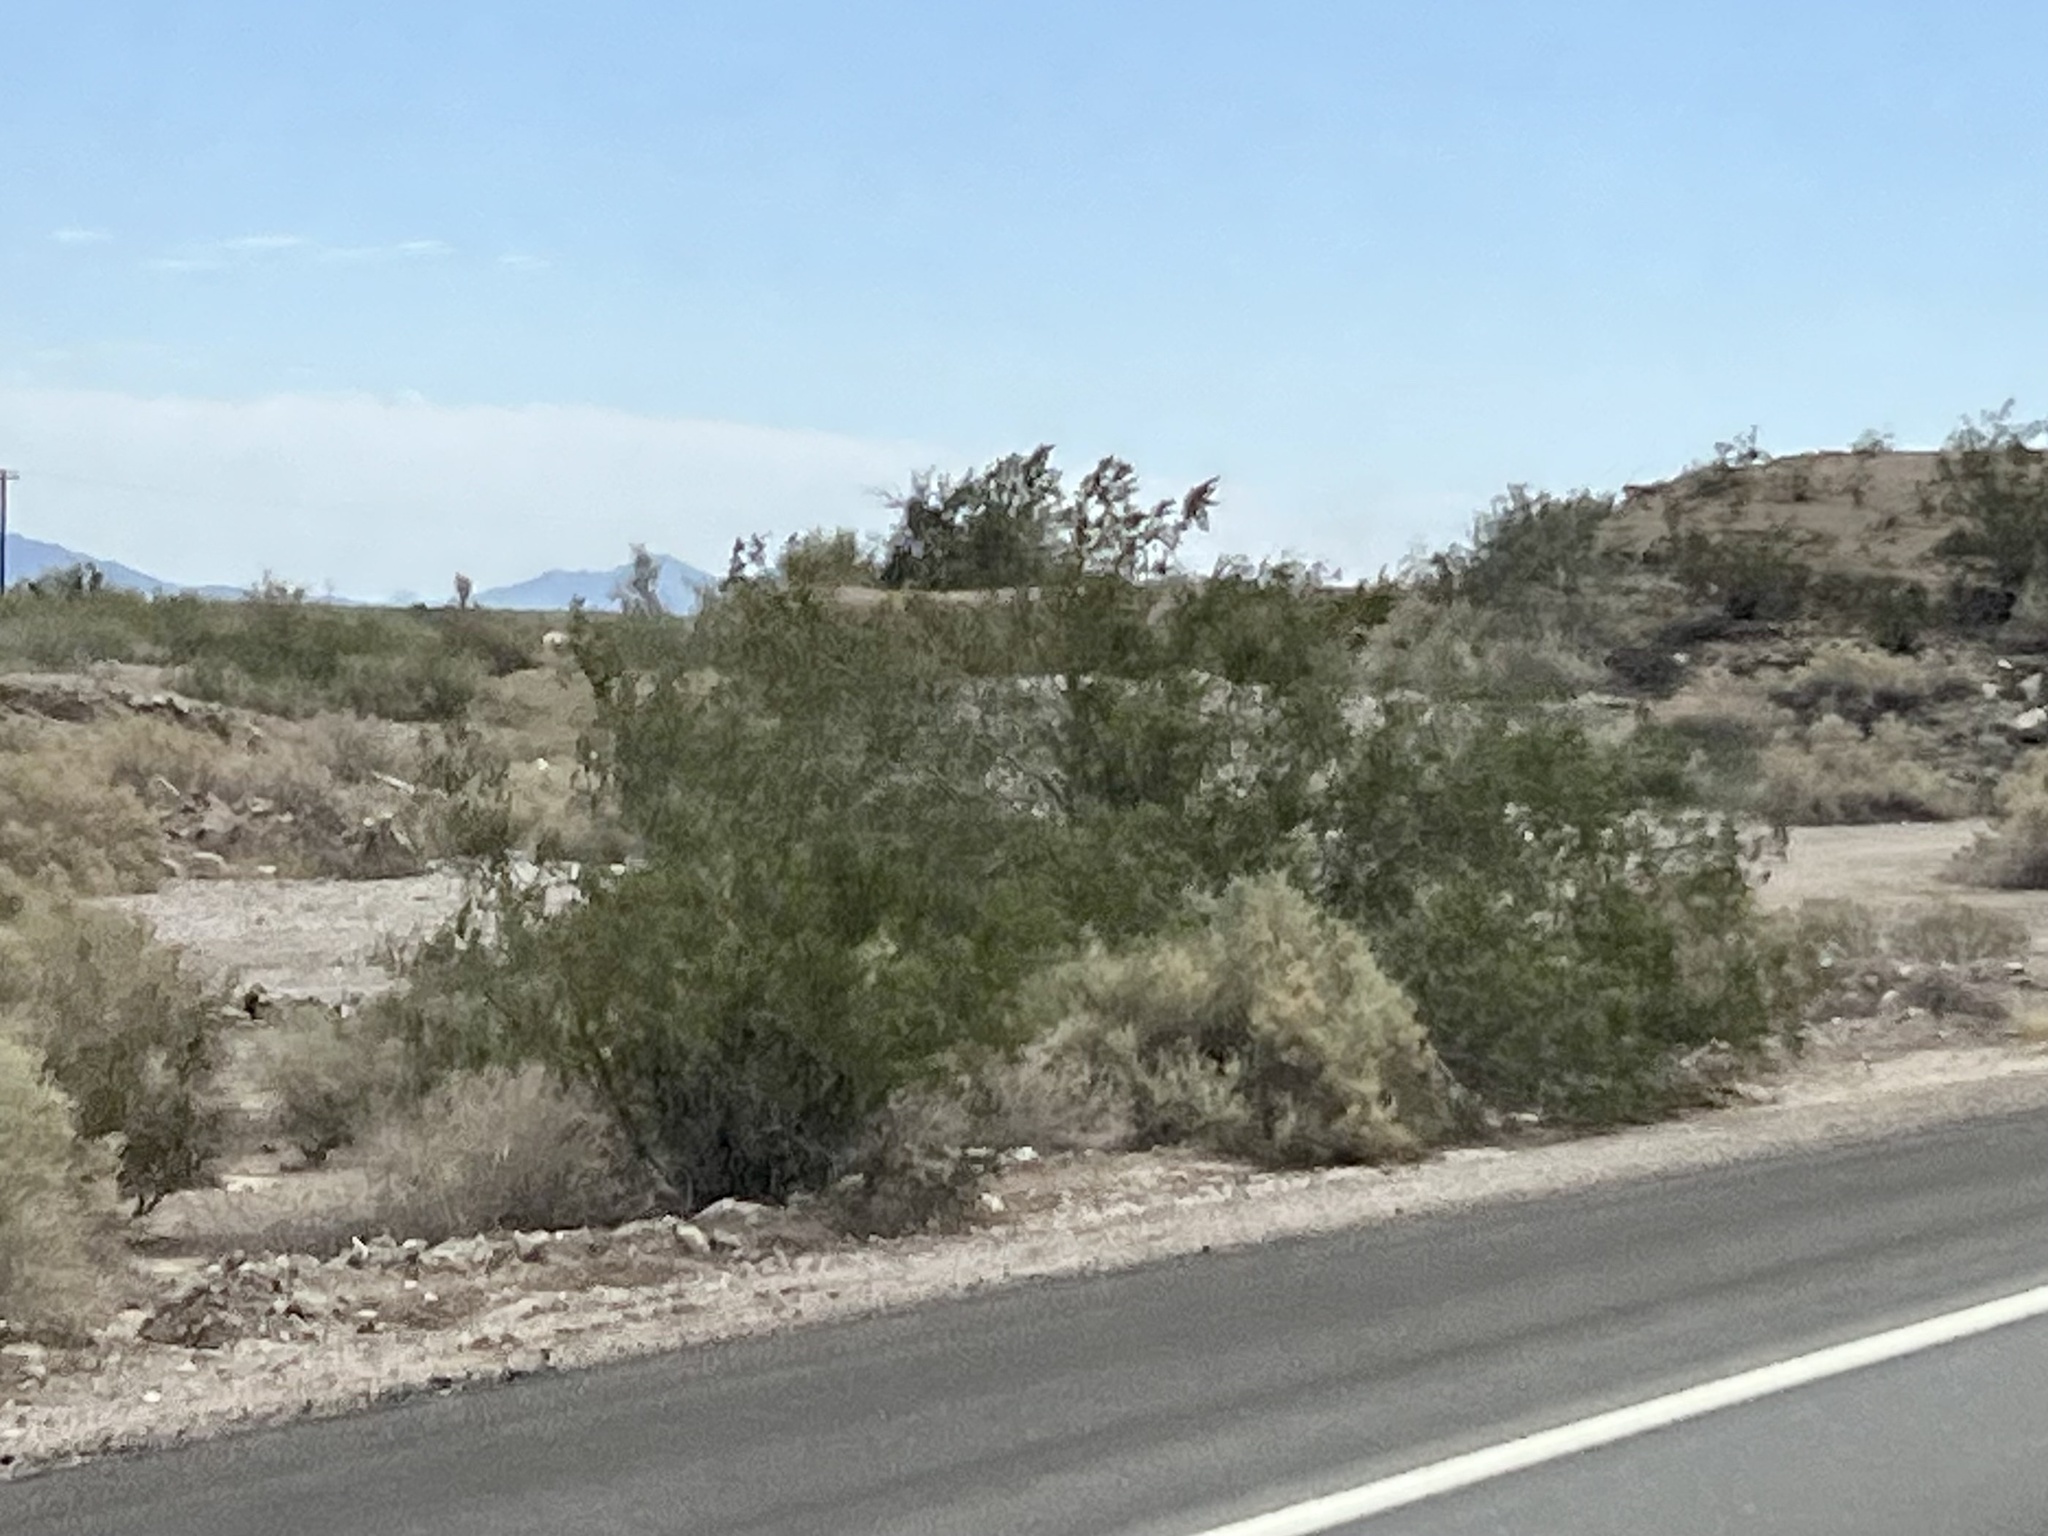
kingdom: Plantae
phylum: Tracheophyta
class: Magnoliopsida
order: Zygophyllales
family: Zygophyllaceae
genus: Larrea
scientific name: Larrea tridentata
